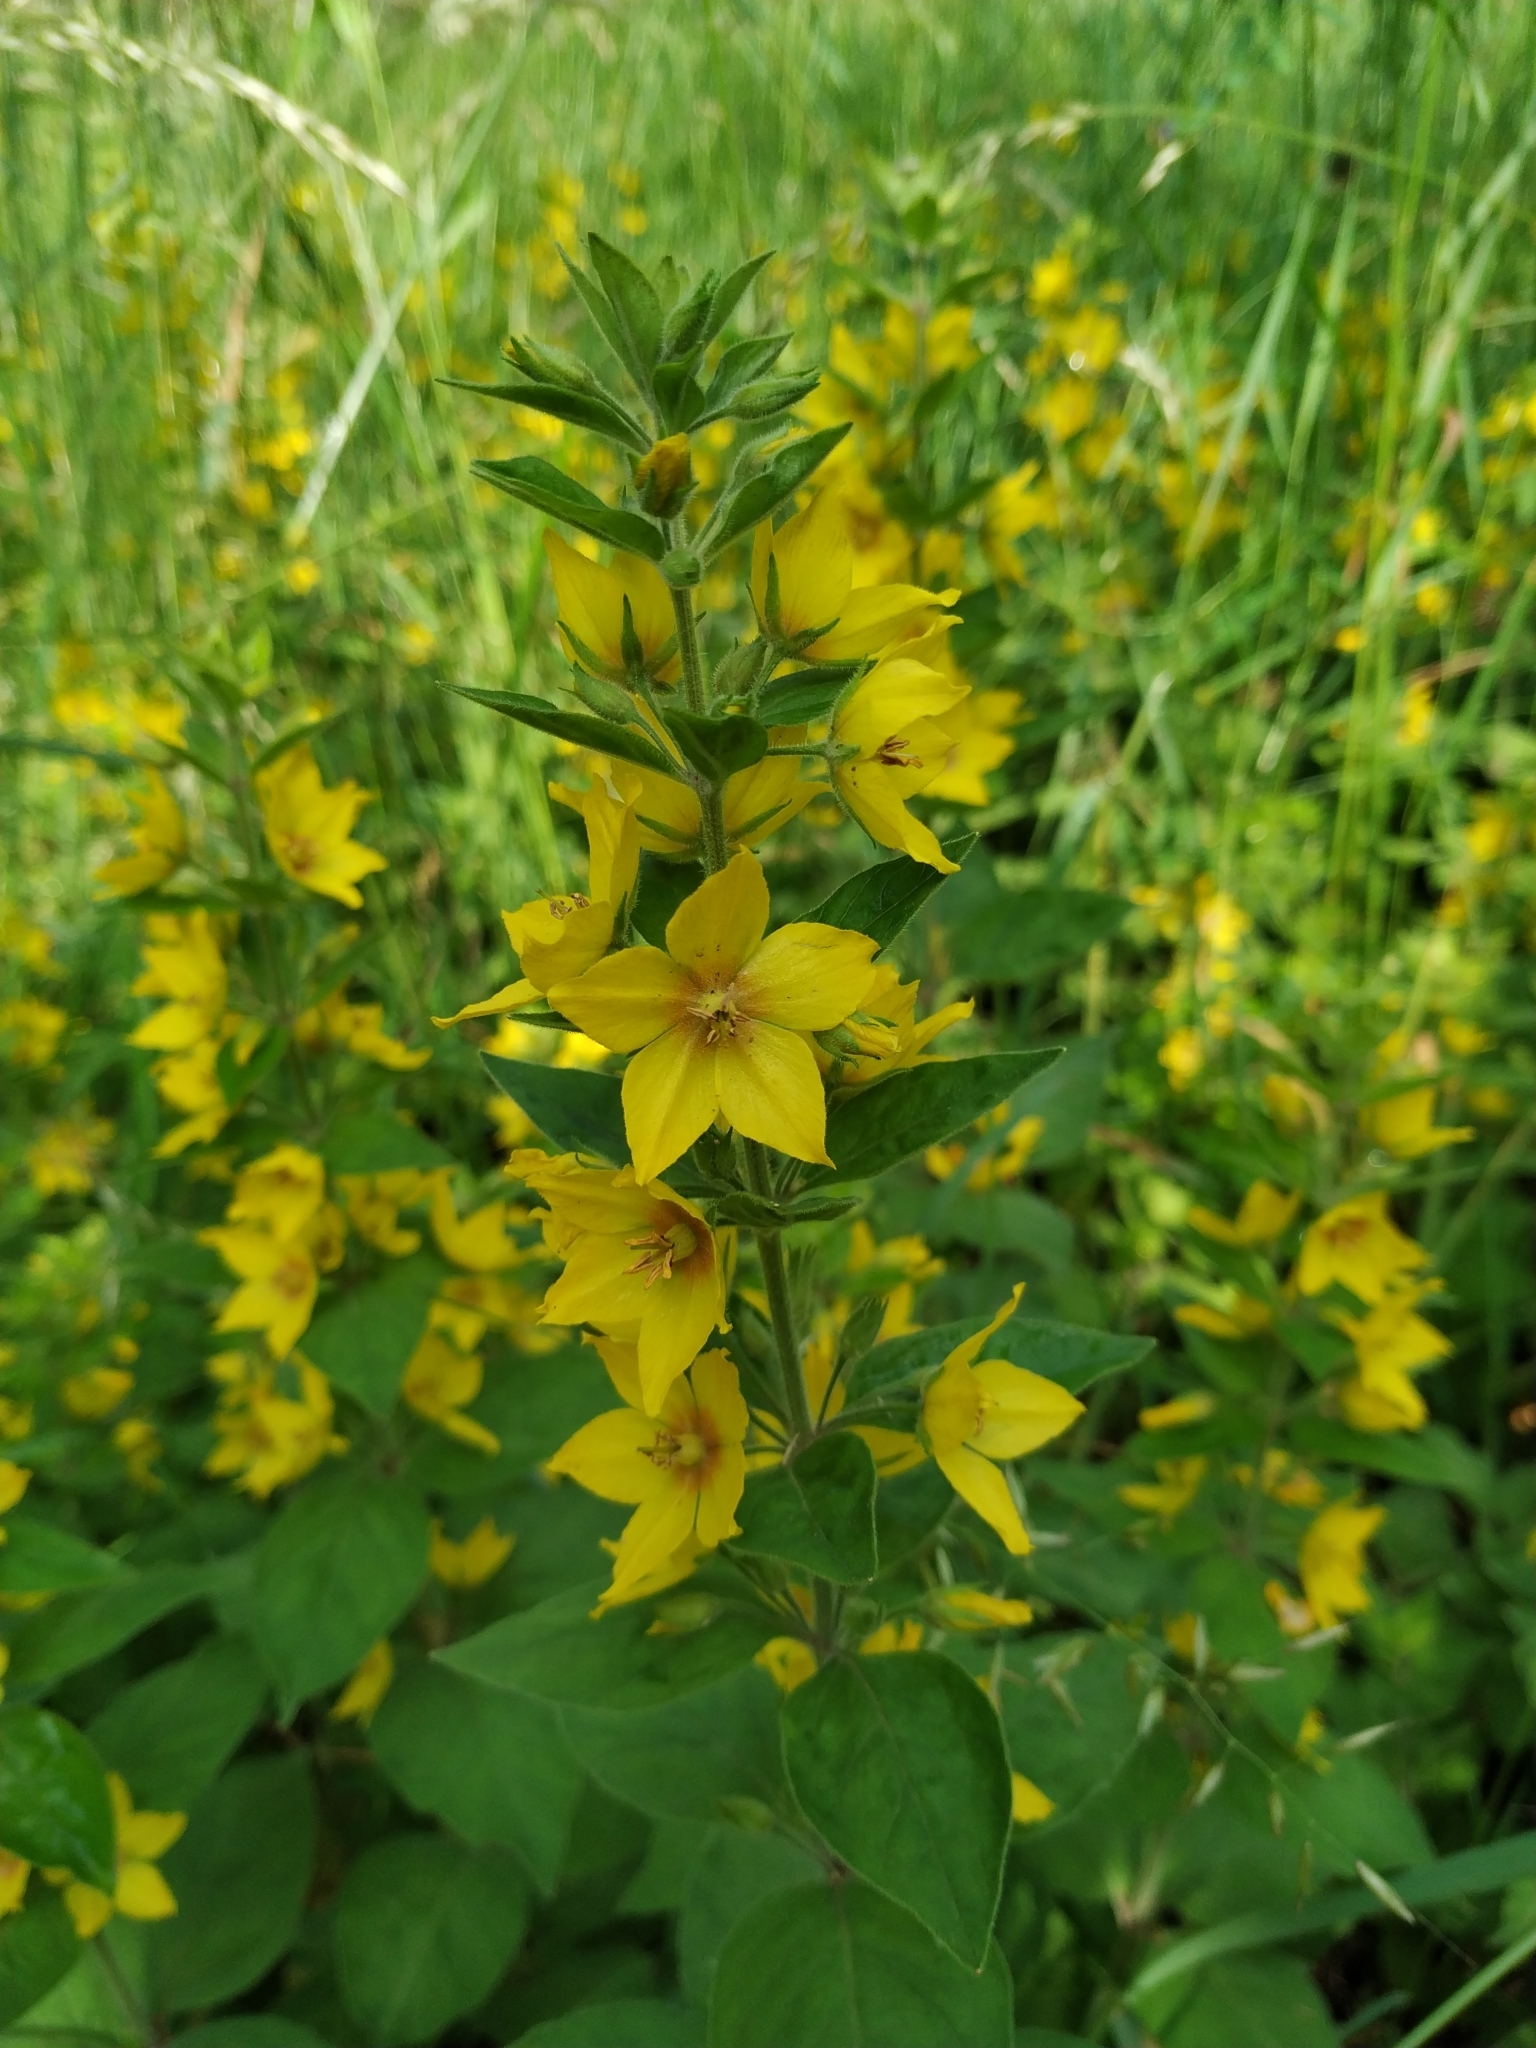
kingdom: Plantae
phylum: Tracheophyta
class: Magnoliopsida
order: Ericales
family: Primulaceae
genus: Lysimachia
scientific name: Lysimachia punctata
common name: Dotted loosestrife
